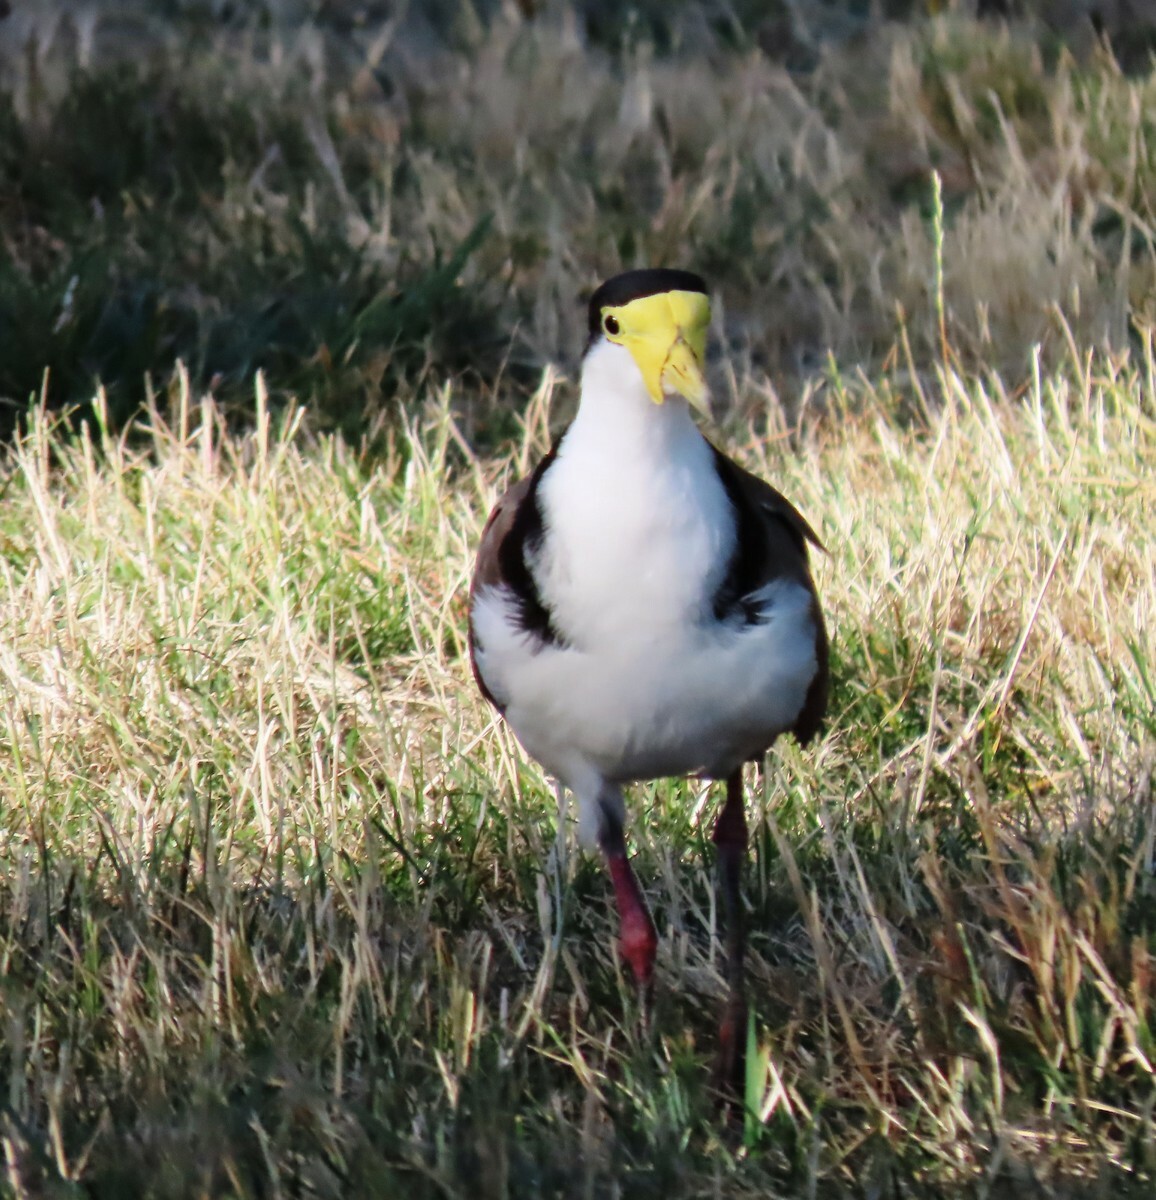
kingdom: Animalia
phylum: Chordata
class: Aves
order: Charadriiformes
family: Charadriidae
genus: Vanellus
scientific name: Vanellus miles
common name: Masked lapwing
